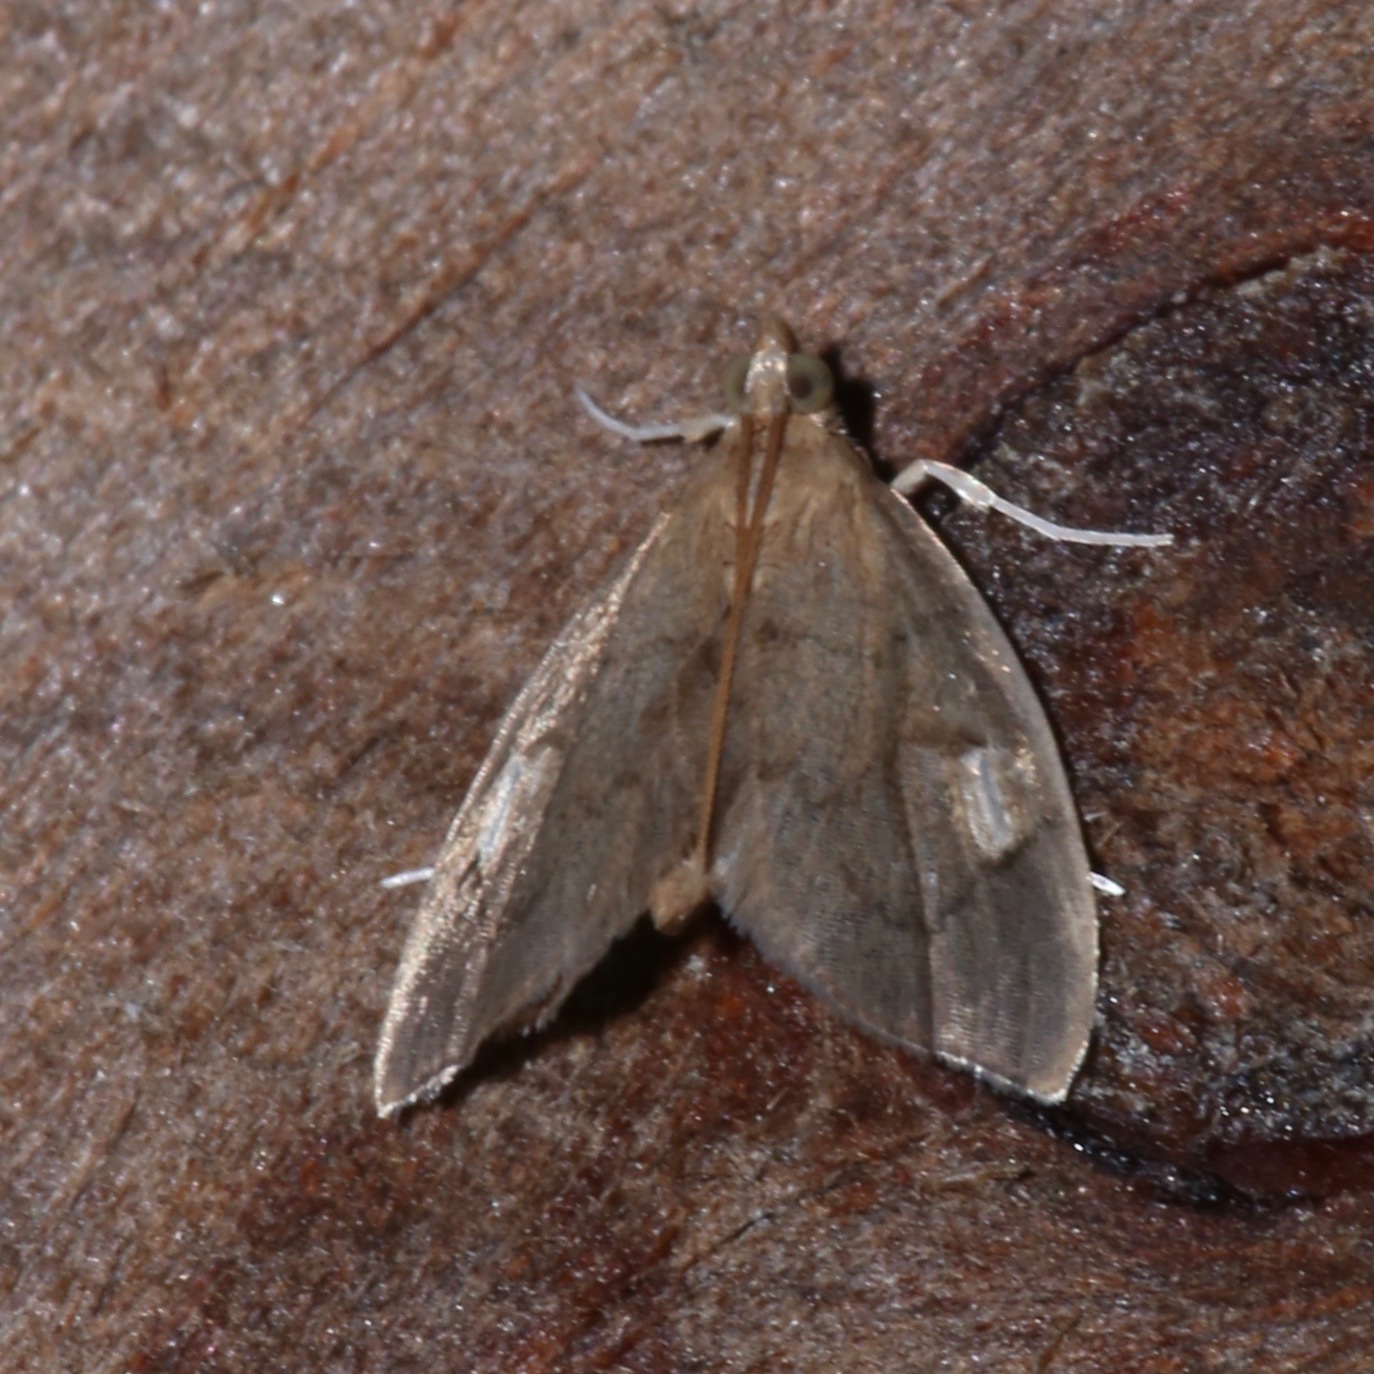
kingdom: Animalia
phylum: Arthropoda
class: Insecta
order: Lepidoptera
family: Crambidae
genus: Perispasta
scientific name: Perispasta caeculalis
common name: Titian peale's moth
